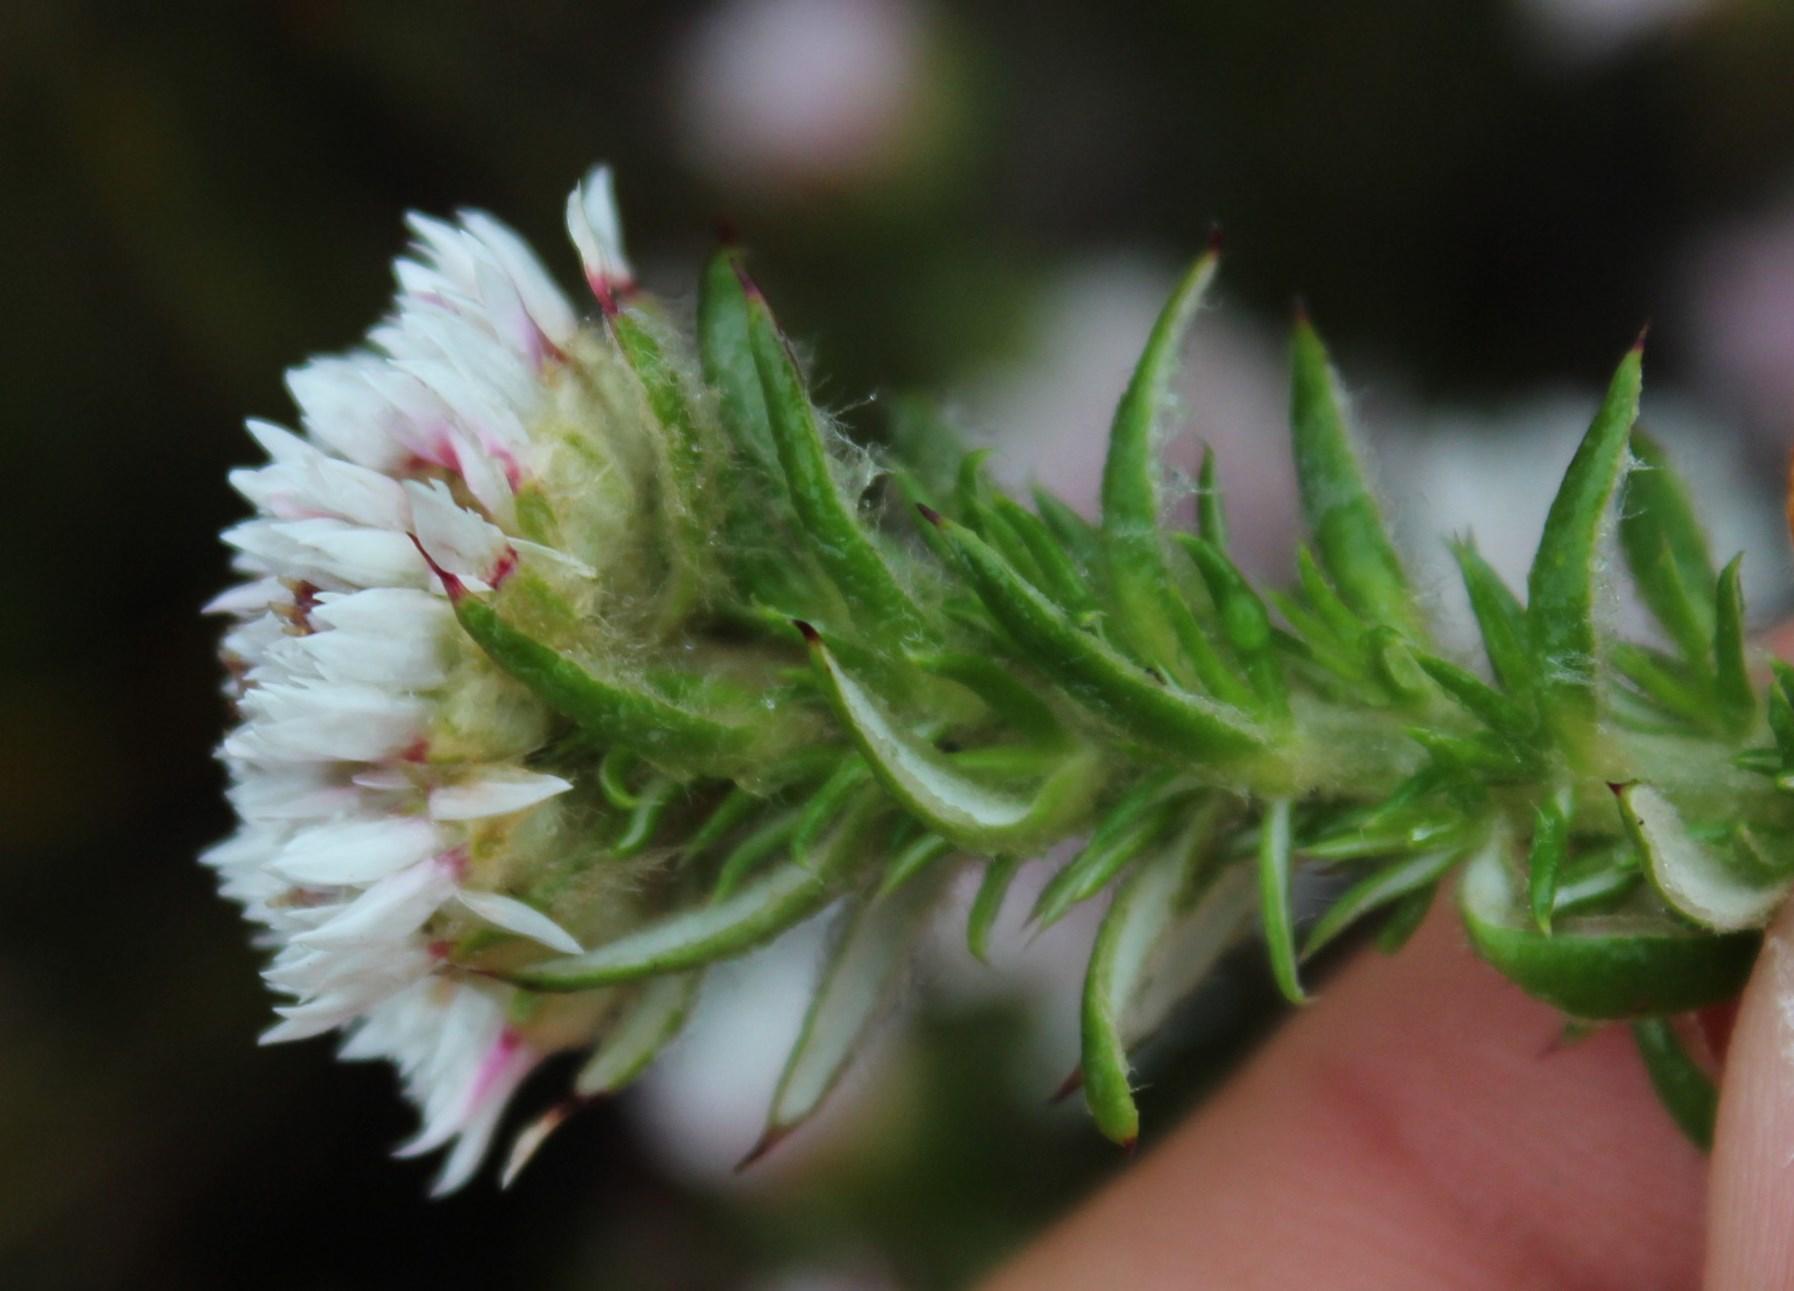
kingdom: Plantae
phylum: Tracheophyta
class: Magnoliopsida
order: Asterales
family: Asteraceae
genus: Metalasia
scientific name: Metalasia inversa
